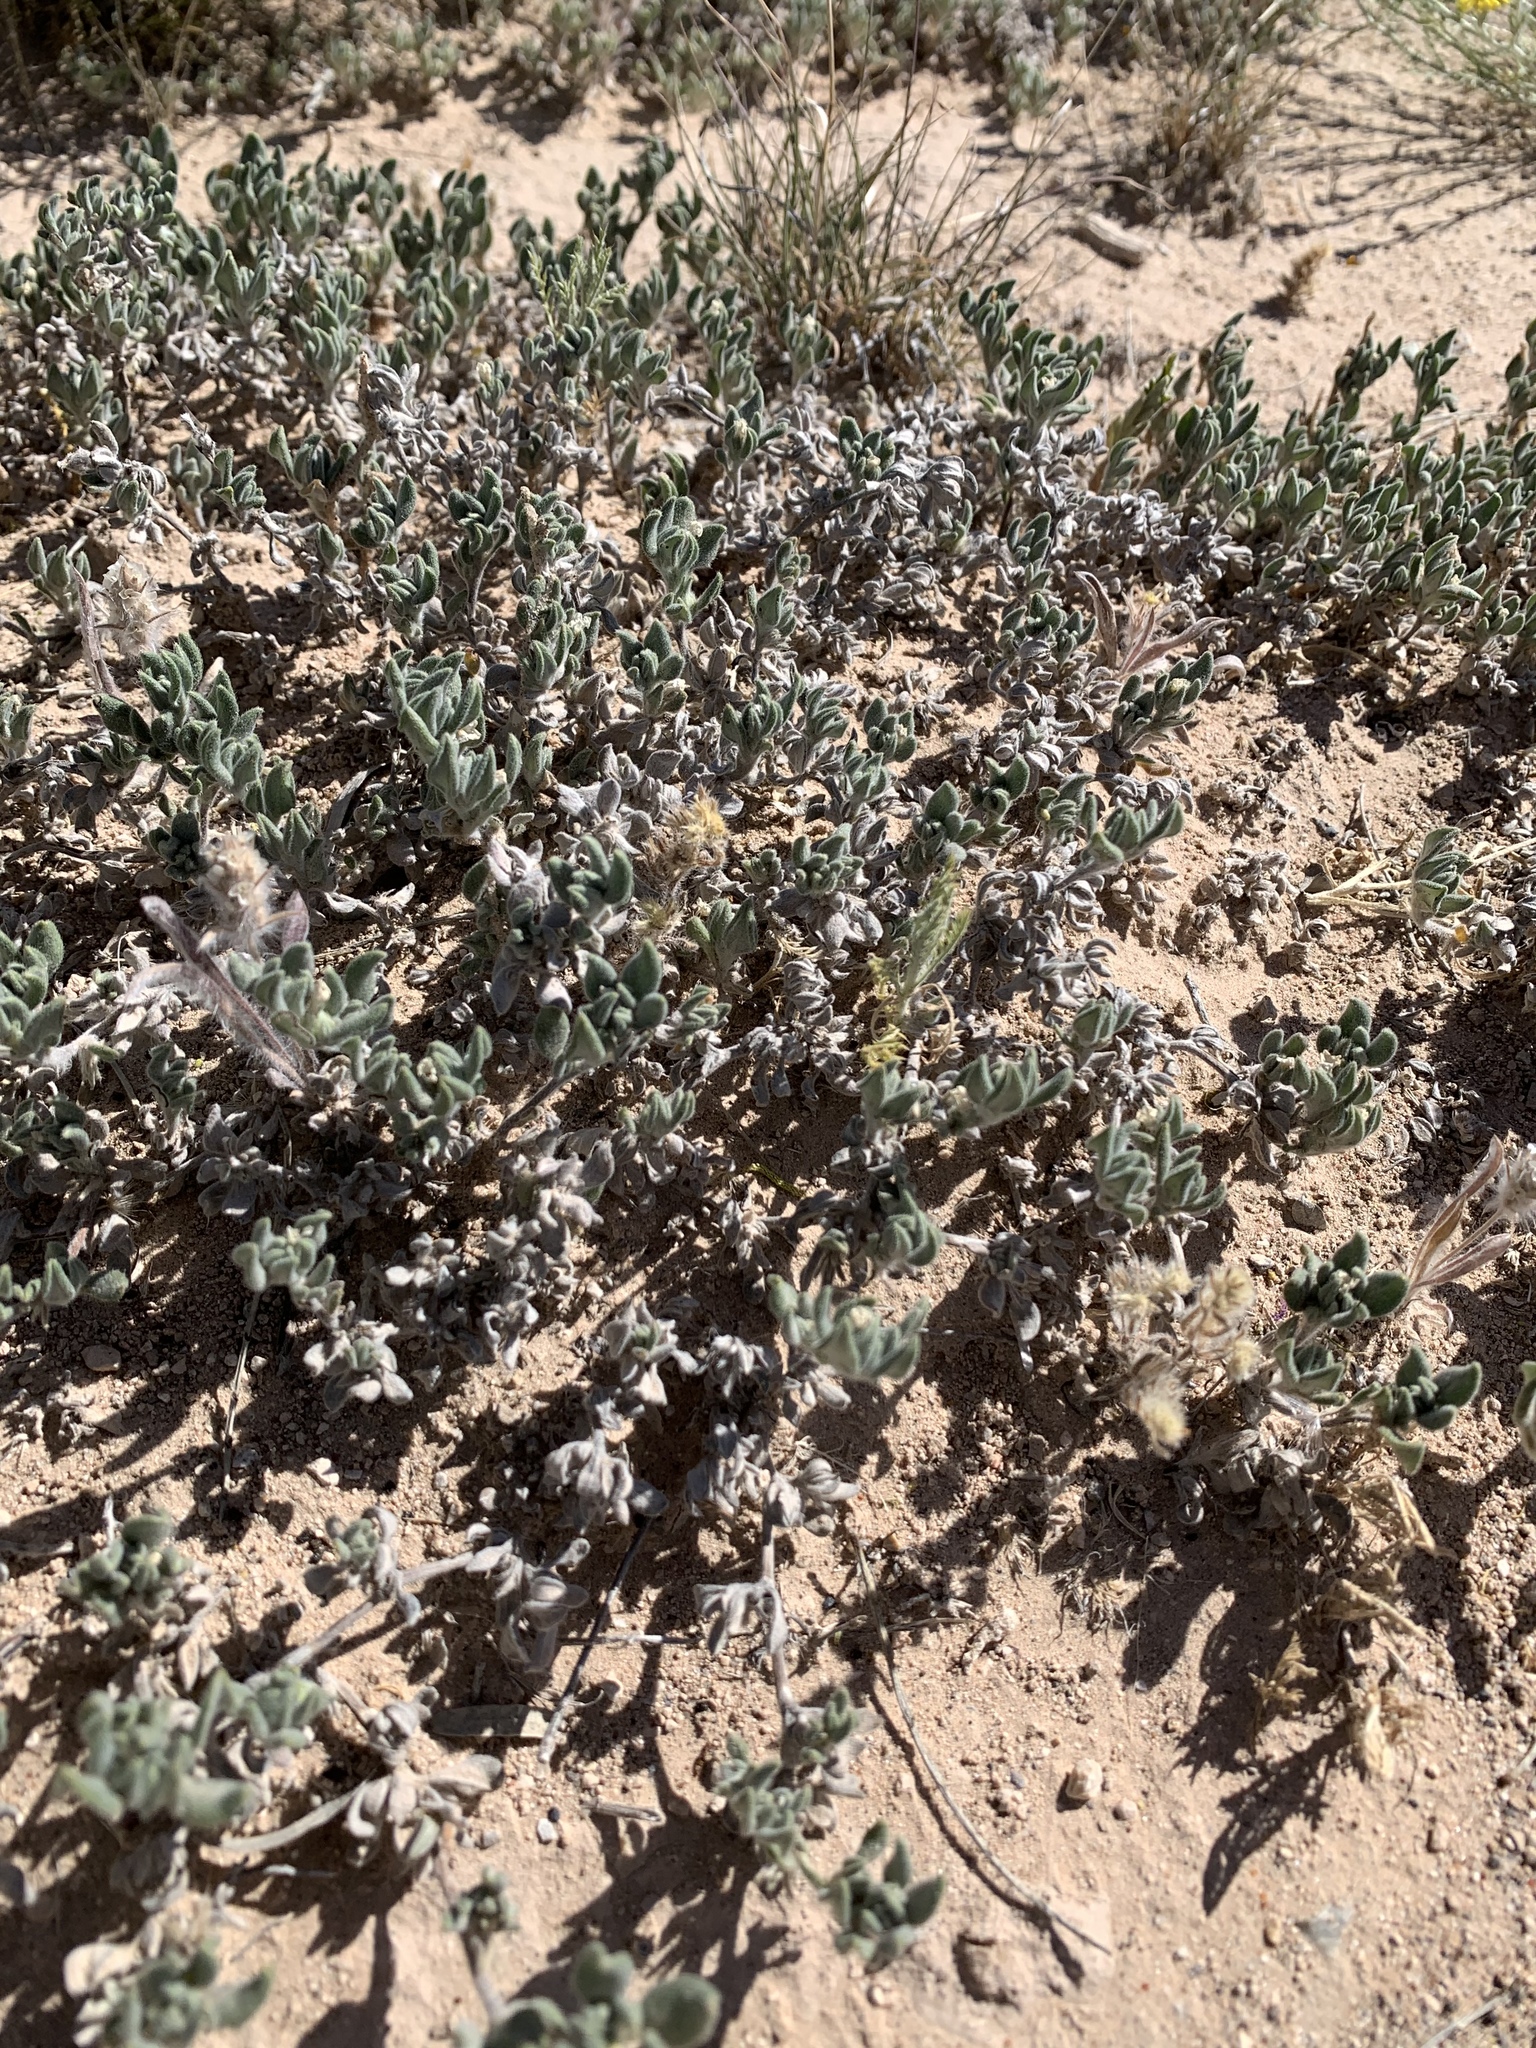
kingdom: Plantae
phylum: Tracheophyta
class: Magnoliopsida
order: Boraginales
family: Ehretiaceae
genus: Tiquilia
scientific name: Tiquilia canescens
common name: Hairy tiquilia
